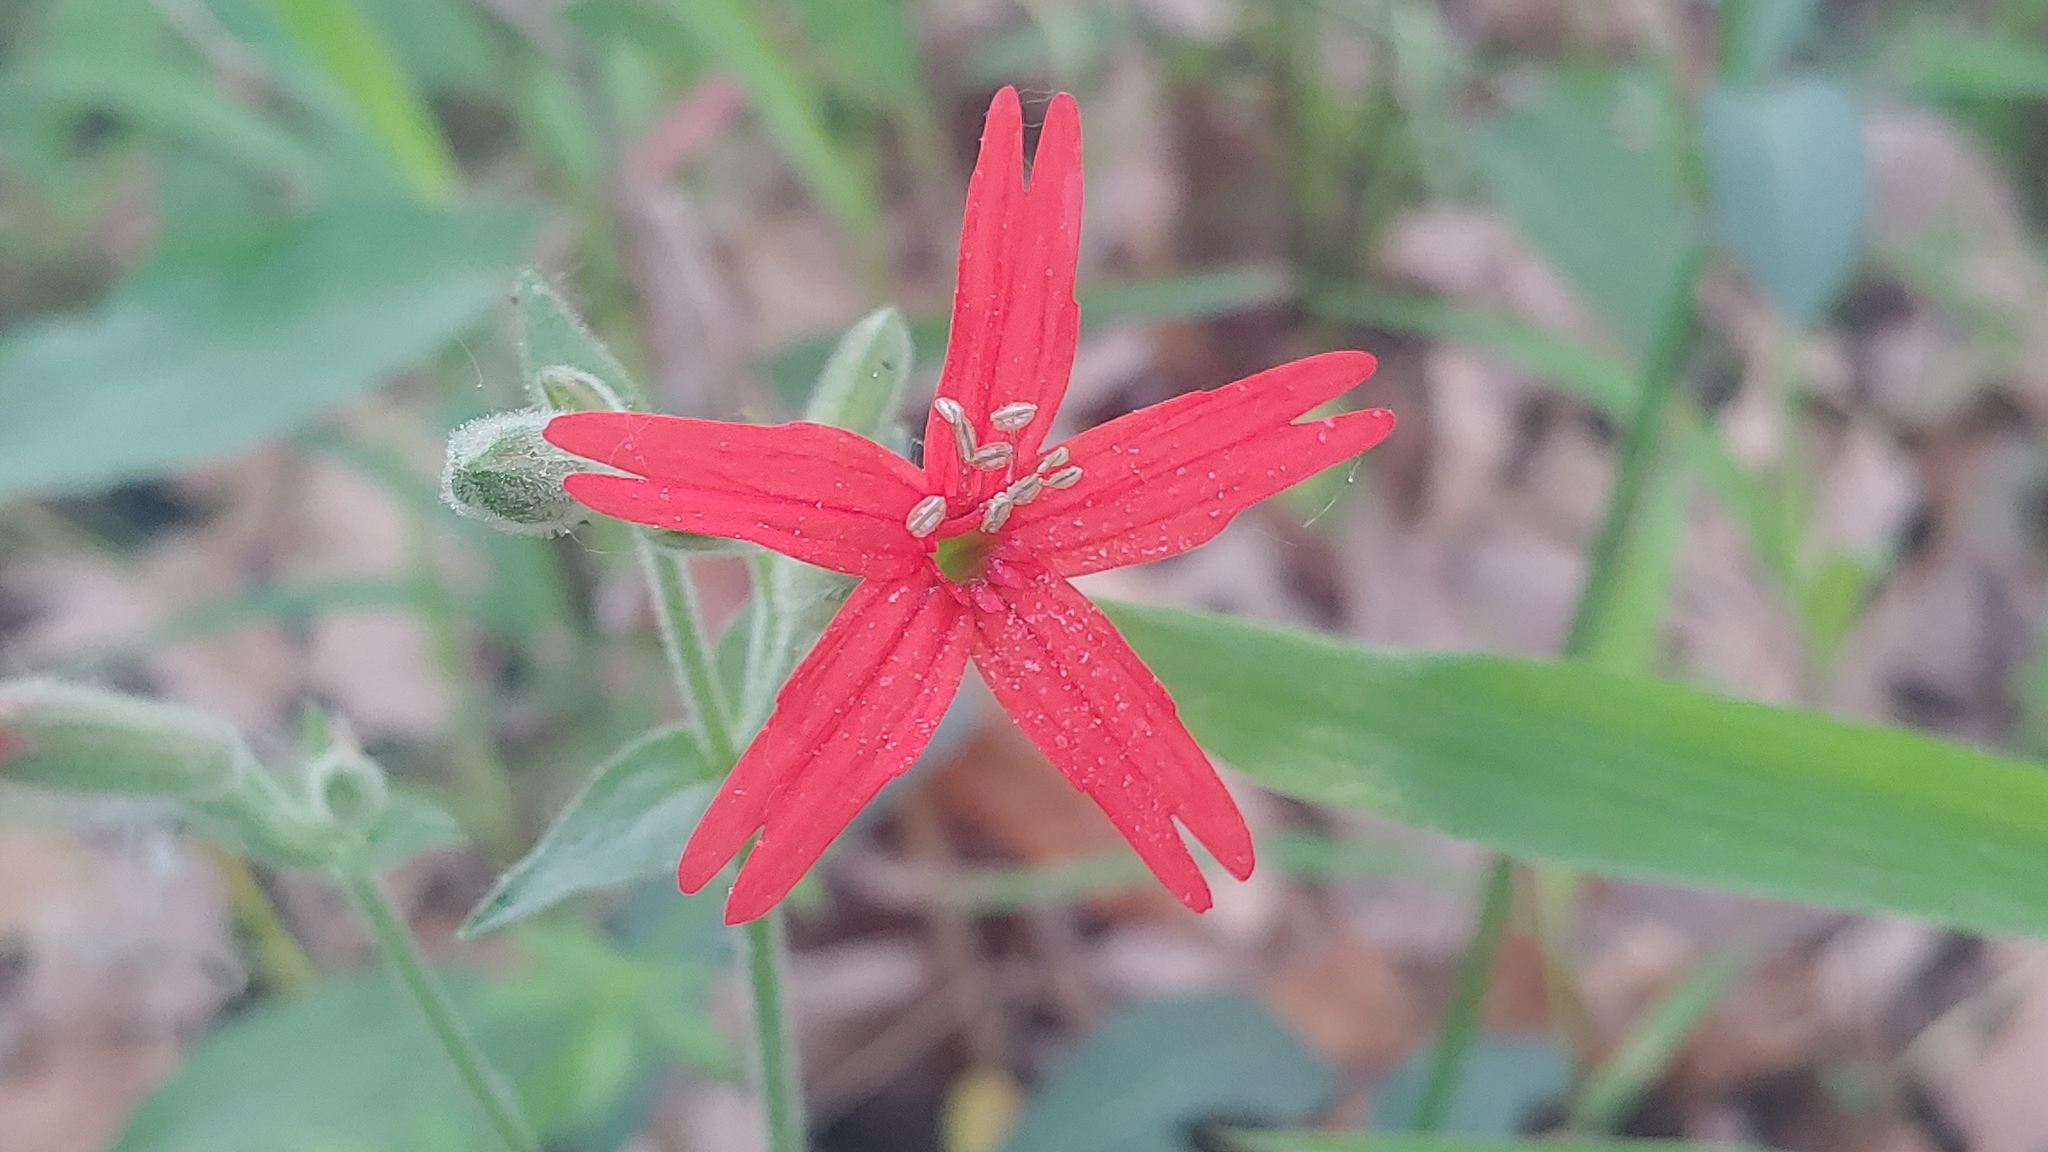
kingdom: Plantae
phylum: Tracheophyta
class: Magnoliopsida
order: Caryophyllales
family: Caryophyllaceae
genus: Silene
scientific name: Silene virginica
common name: Fire-pink
